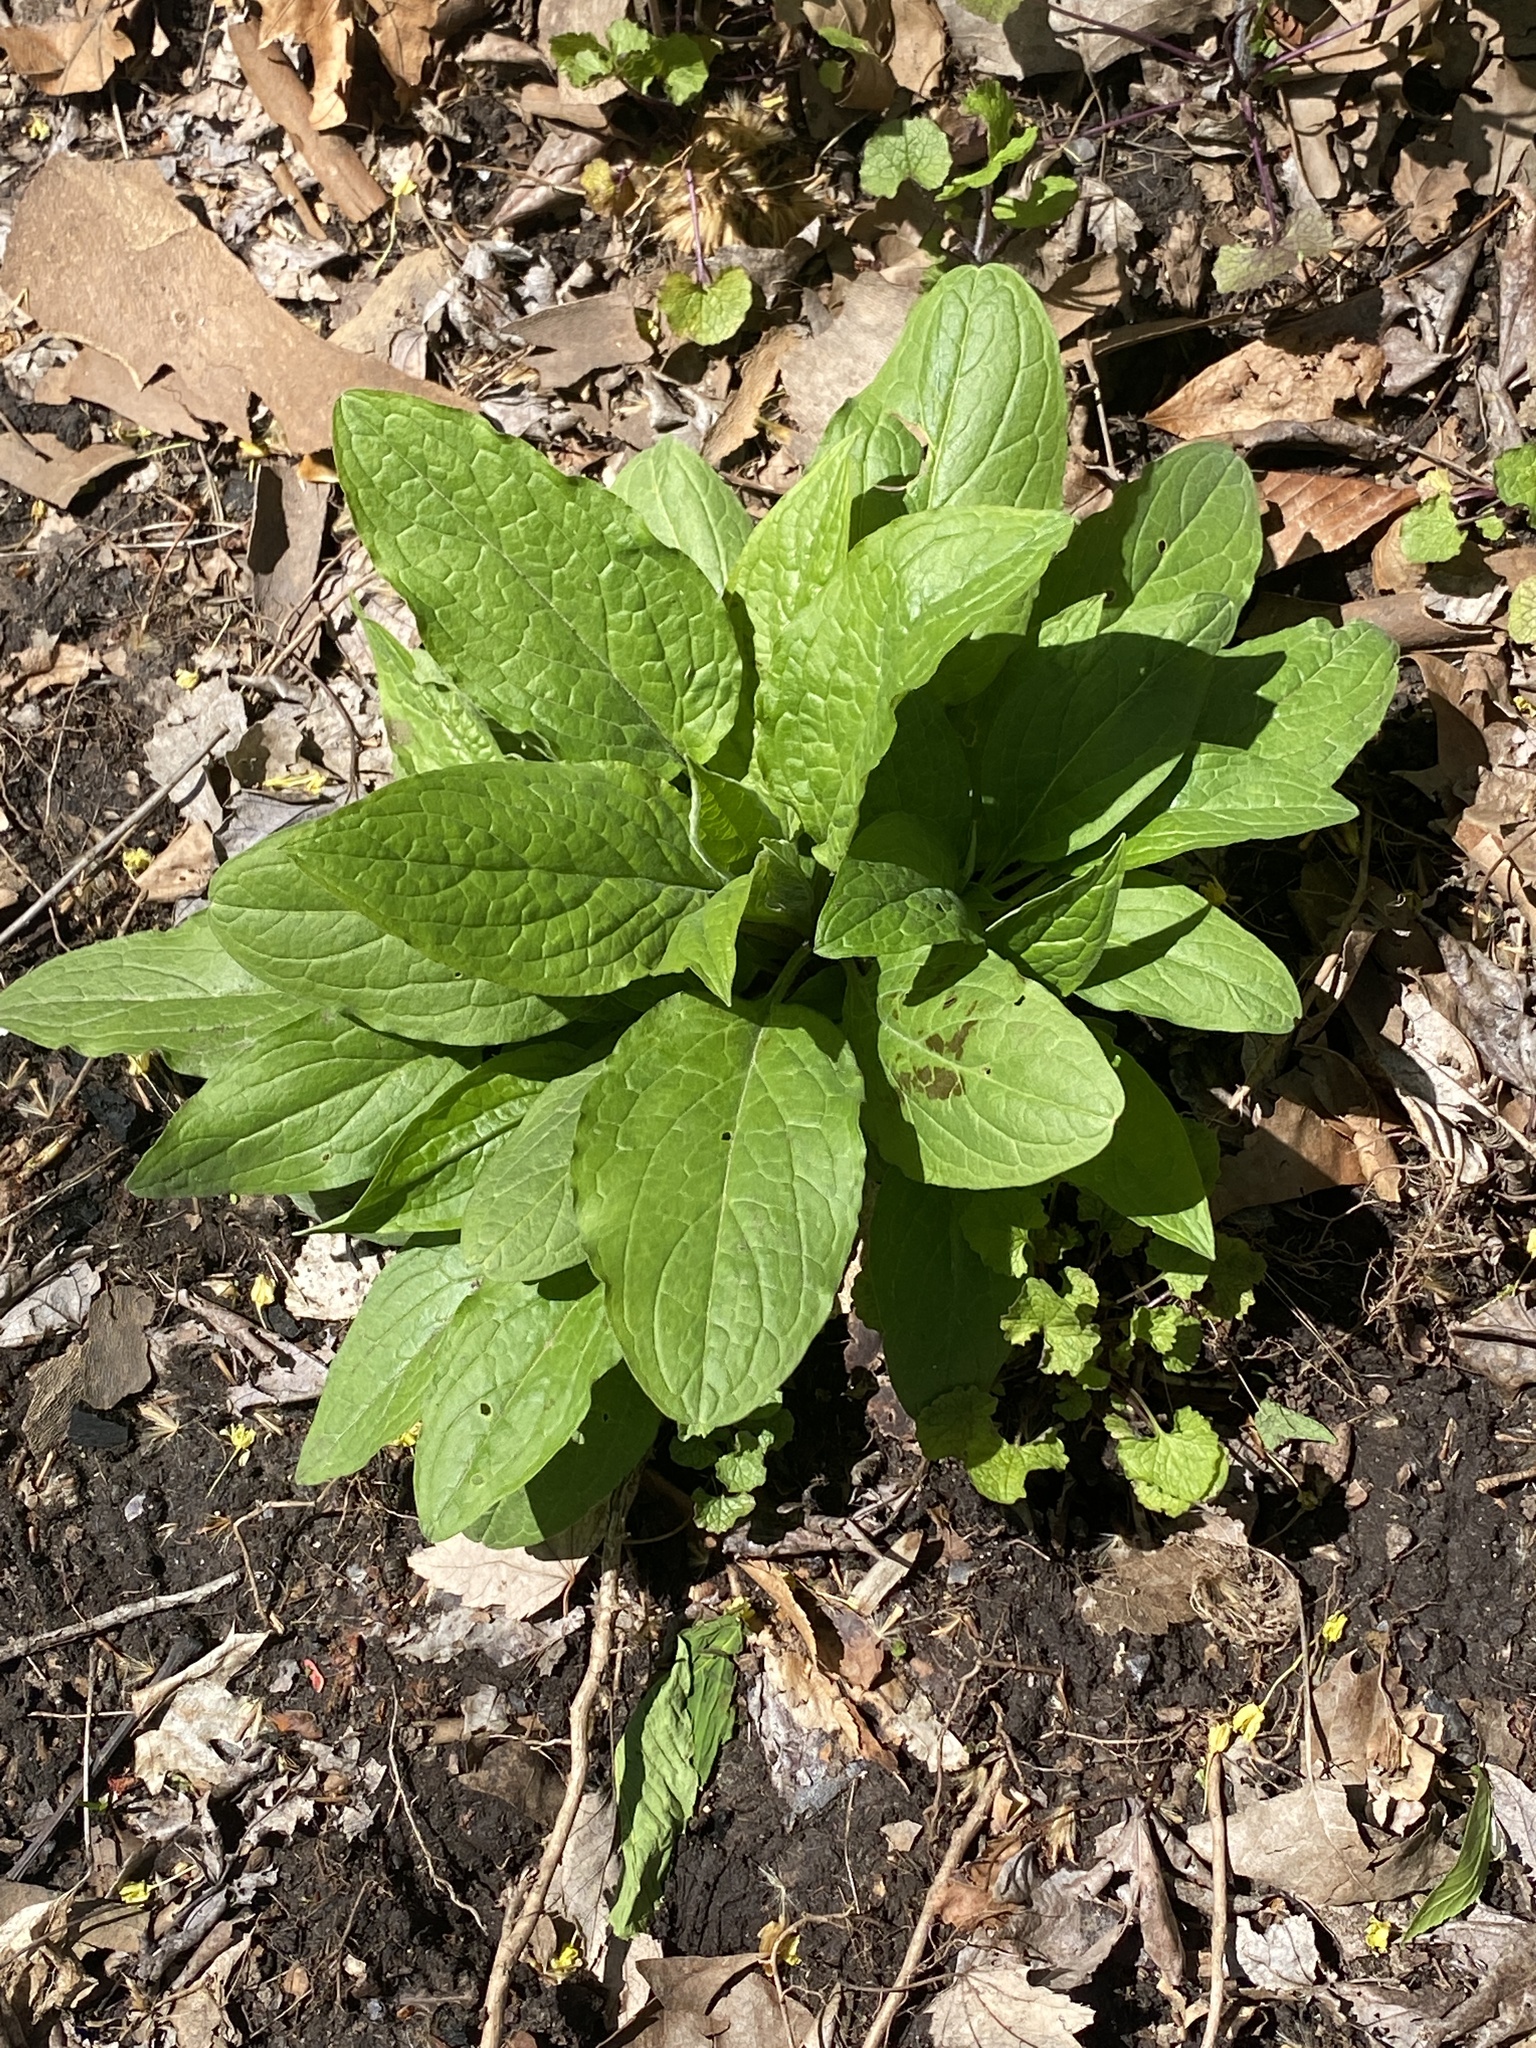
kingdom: Plantae
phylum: Tracheophyta
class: Magnoliopsida
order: Boraginales
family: Boraginaceae
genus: Hackelia
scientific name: Hackelia virginiana
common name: Beggar's-lice
